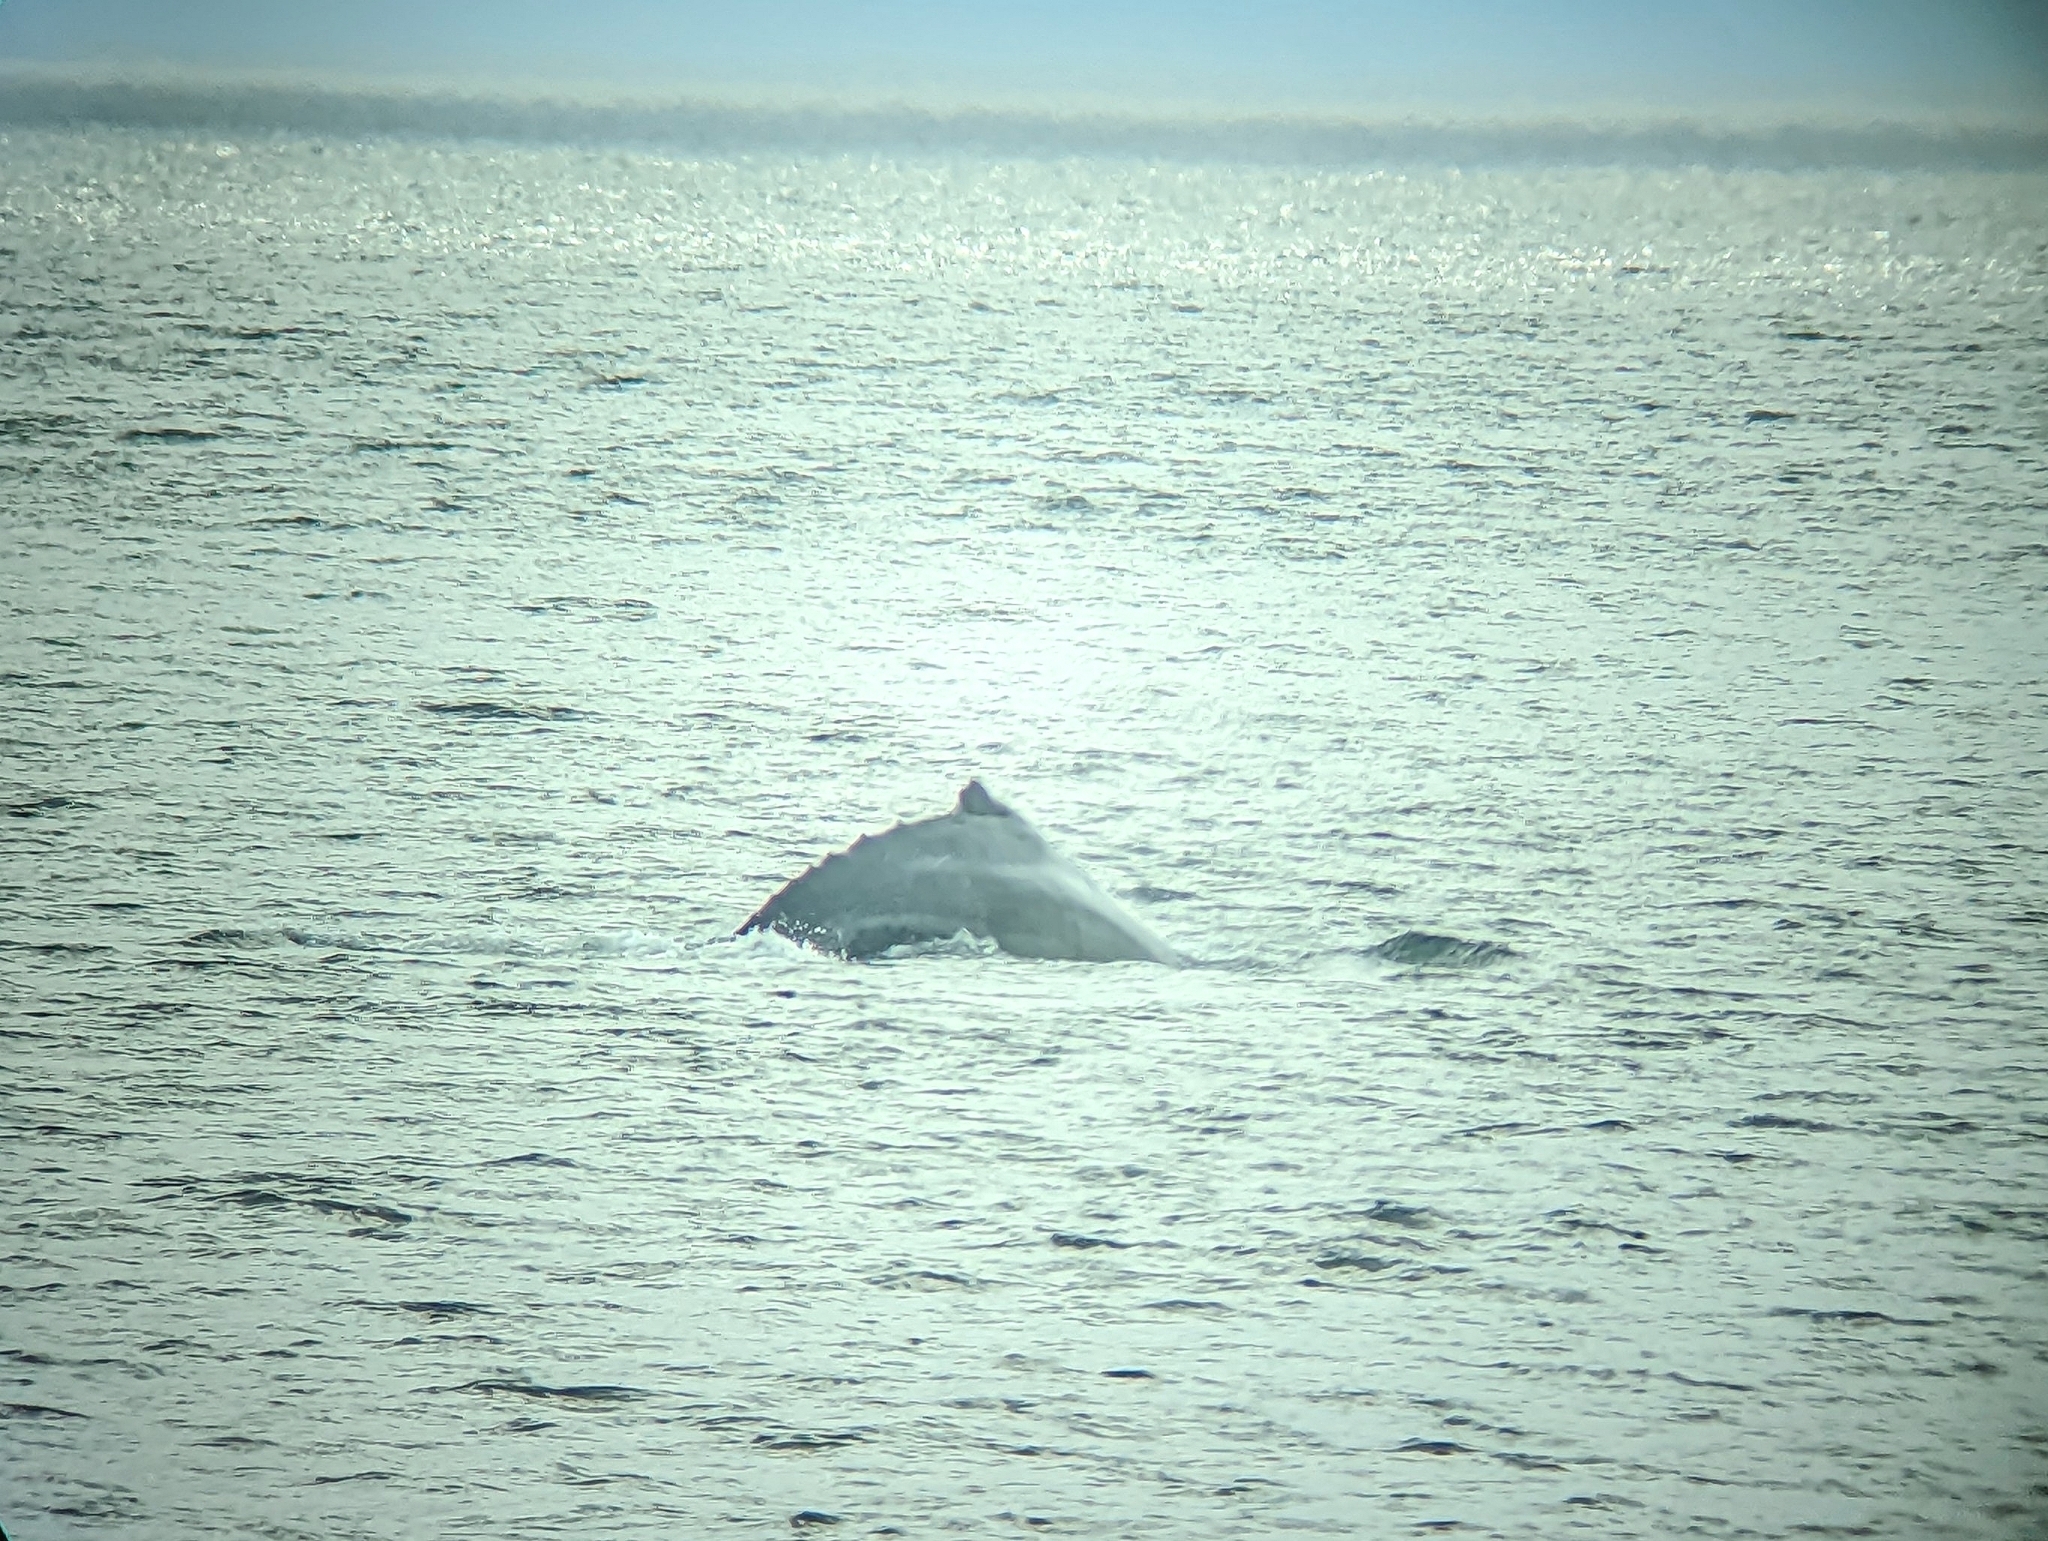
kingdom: Animalia
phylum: Chordata
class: Mammalia
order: Cetacea
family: Balaenopteridae
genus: Megaptera
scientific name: Megaptera novaeangliae
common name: Humpback whale
